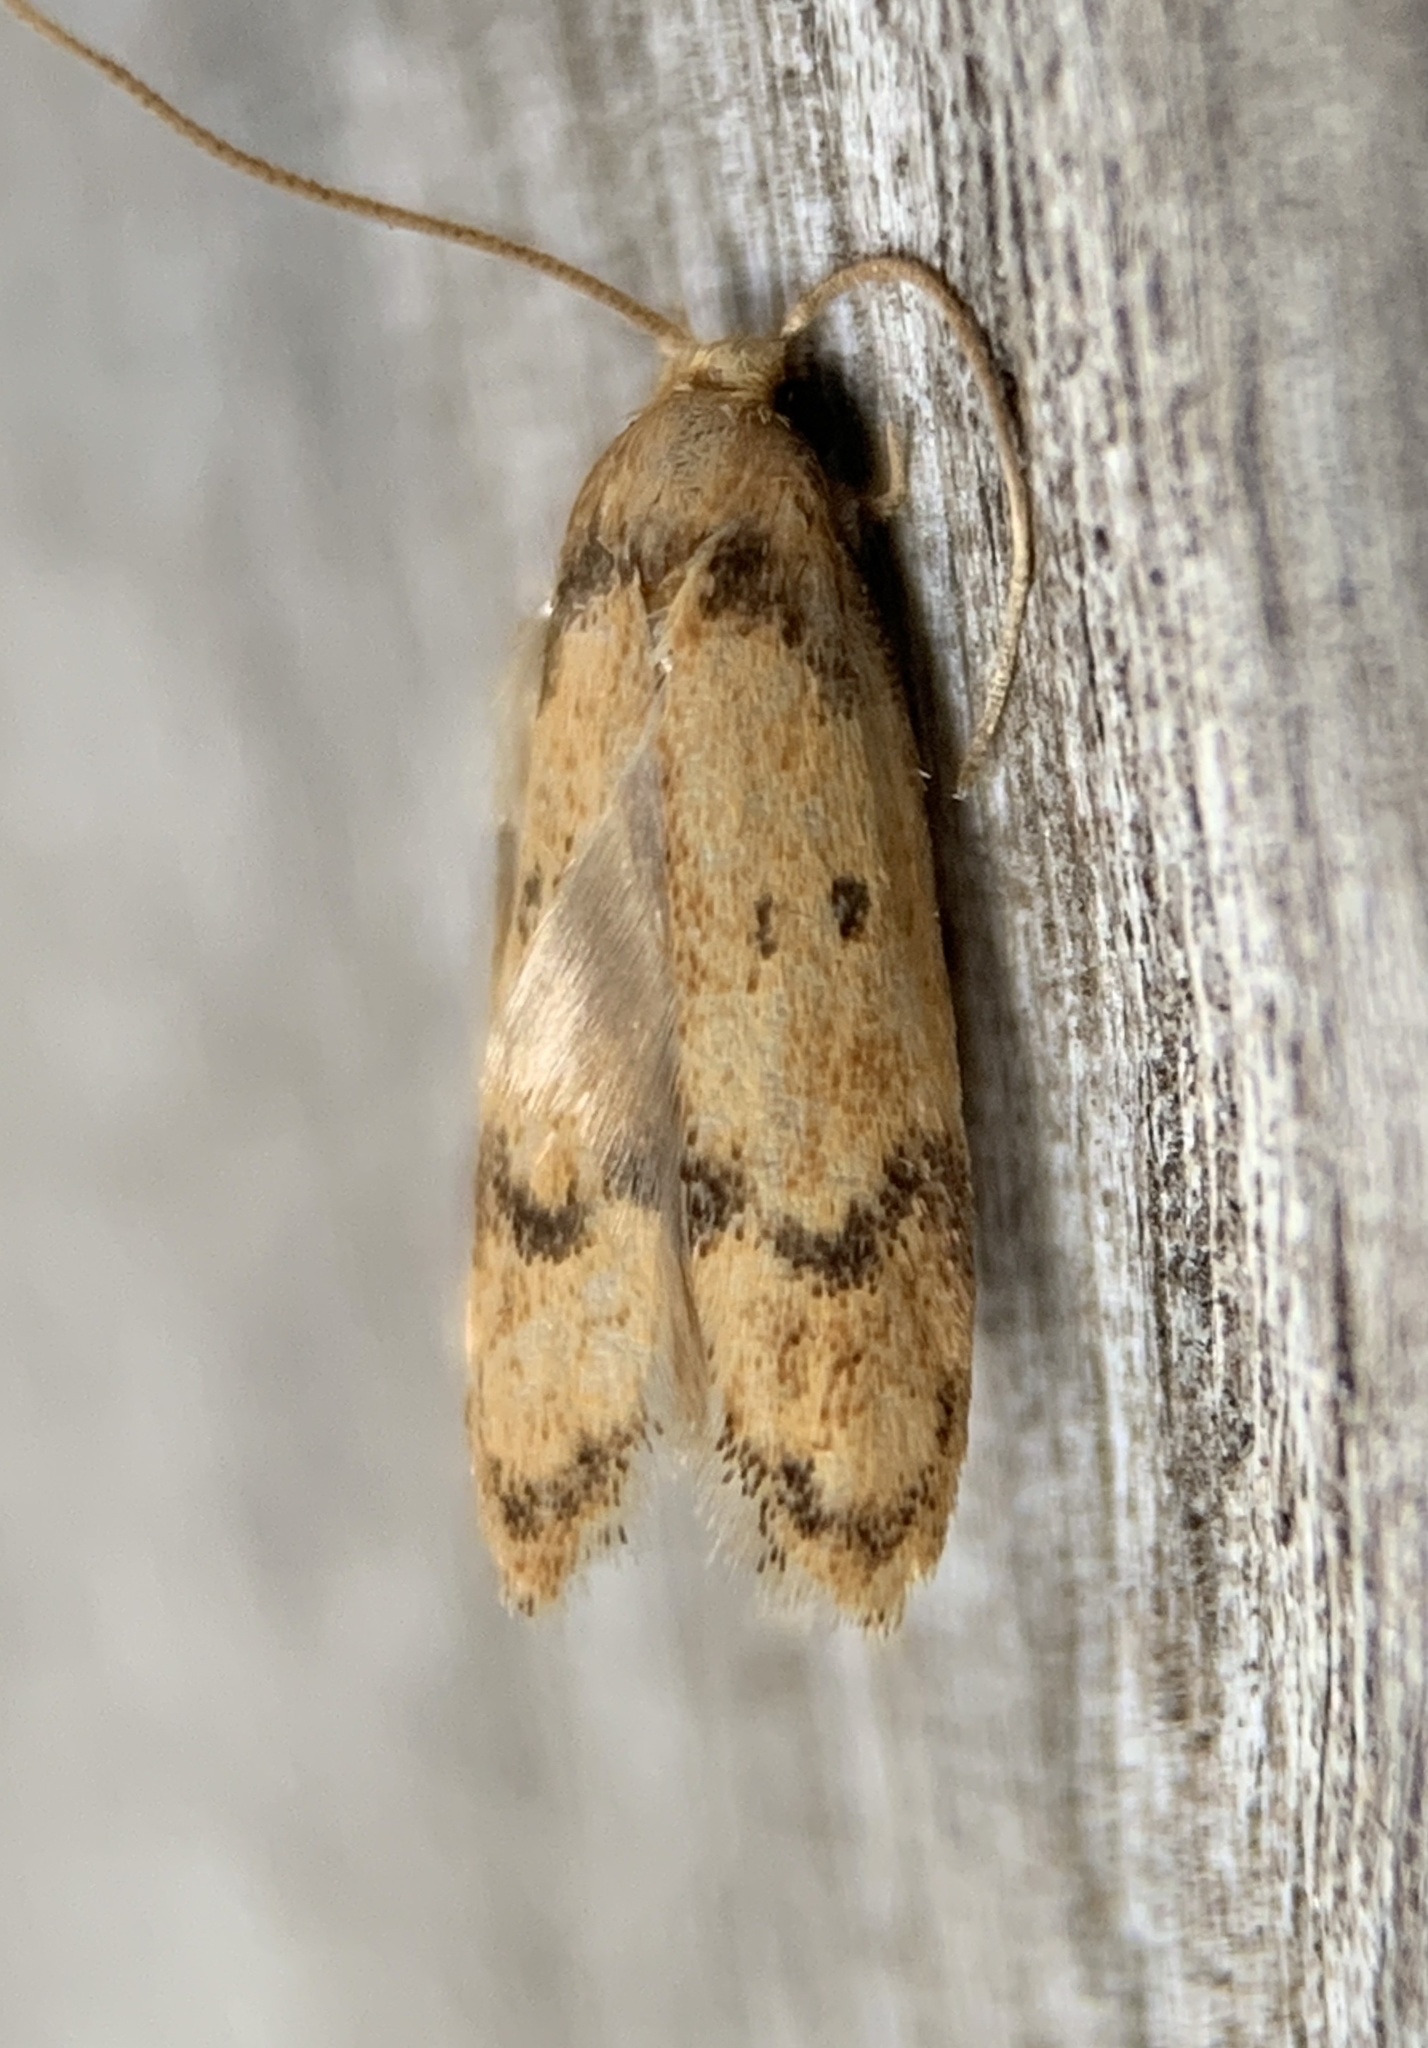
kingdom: Animalia
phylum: Arthropoda
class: Insecta
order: Lepidoptera
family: Autostichidae
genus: Gerdana
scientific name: Gerdana caritella
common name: Gerdana moth
